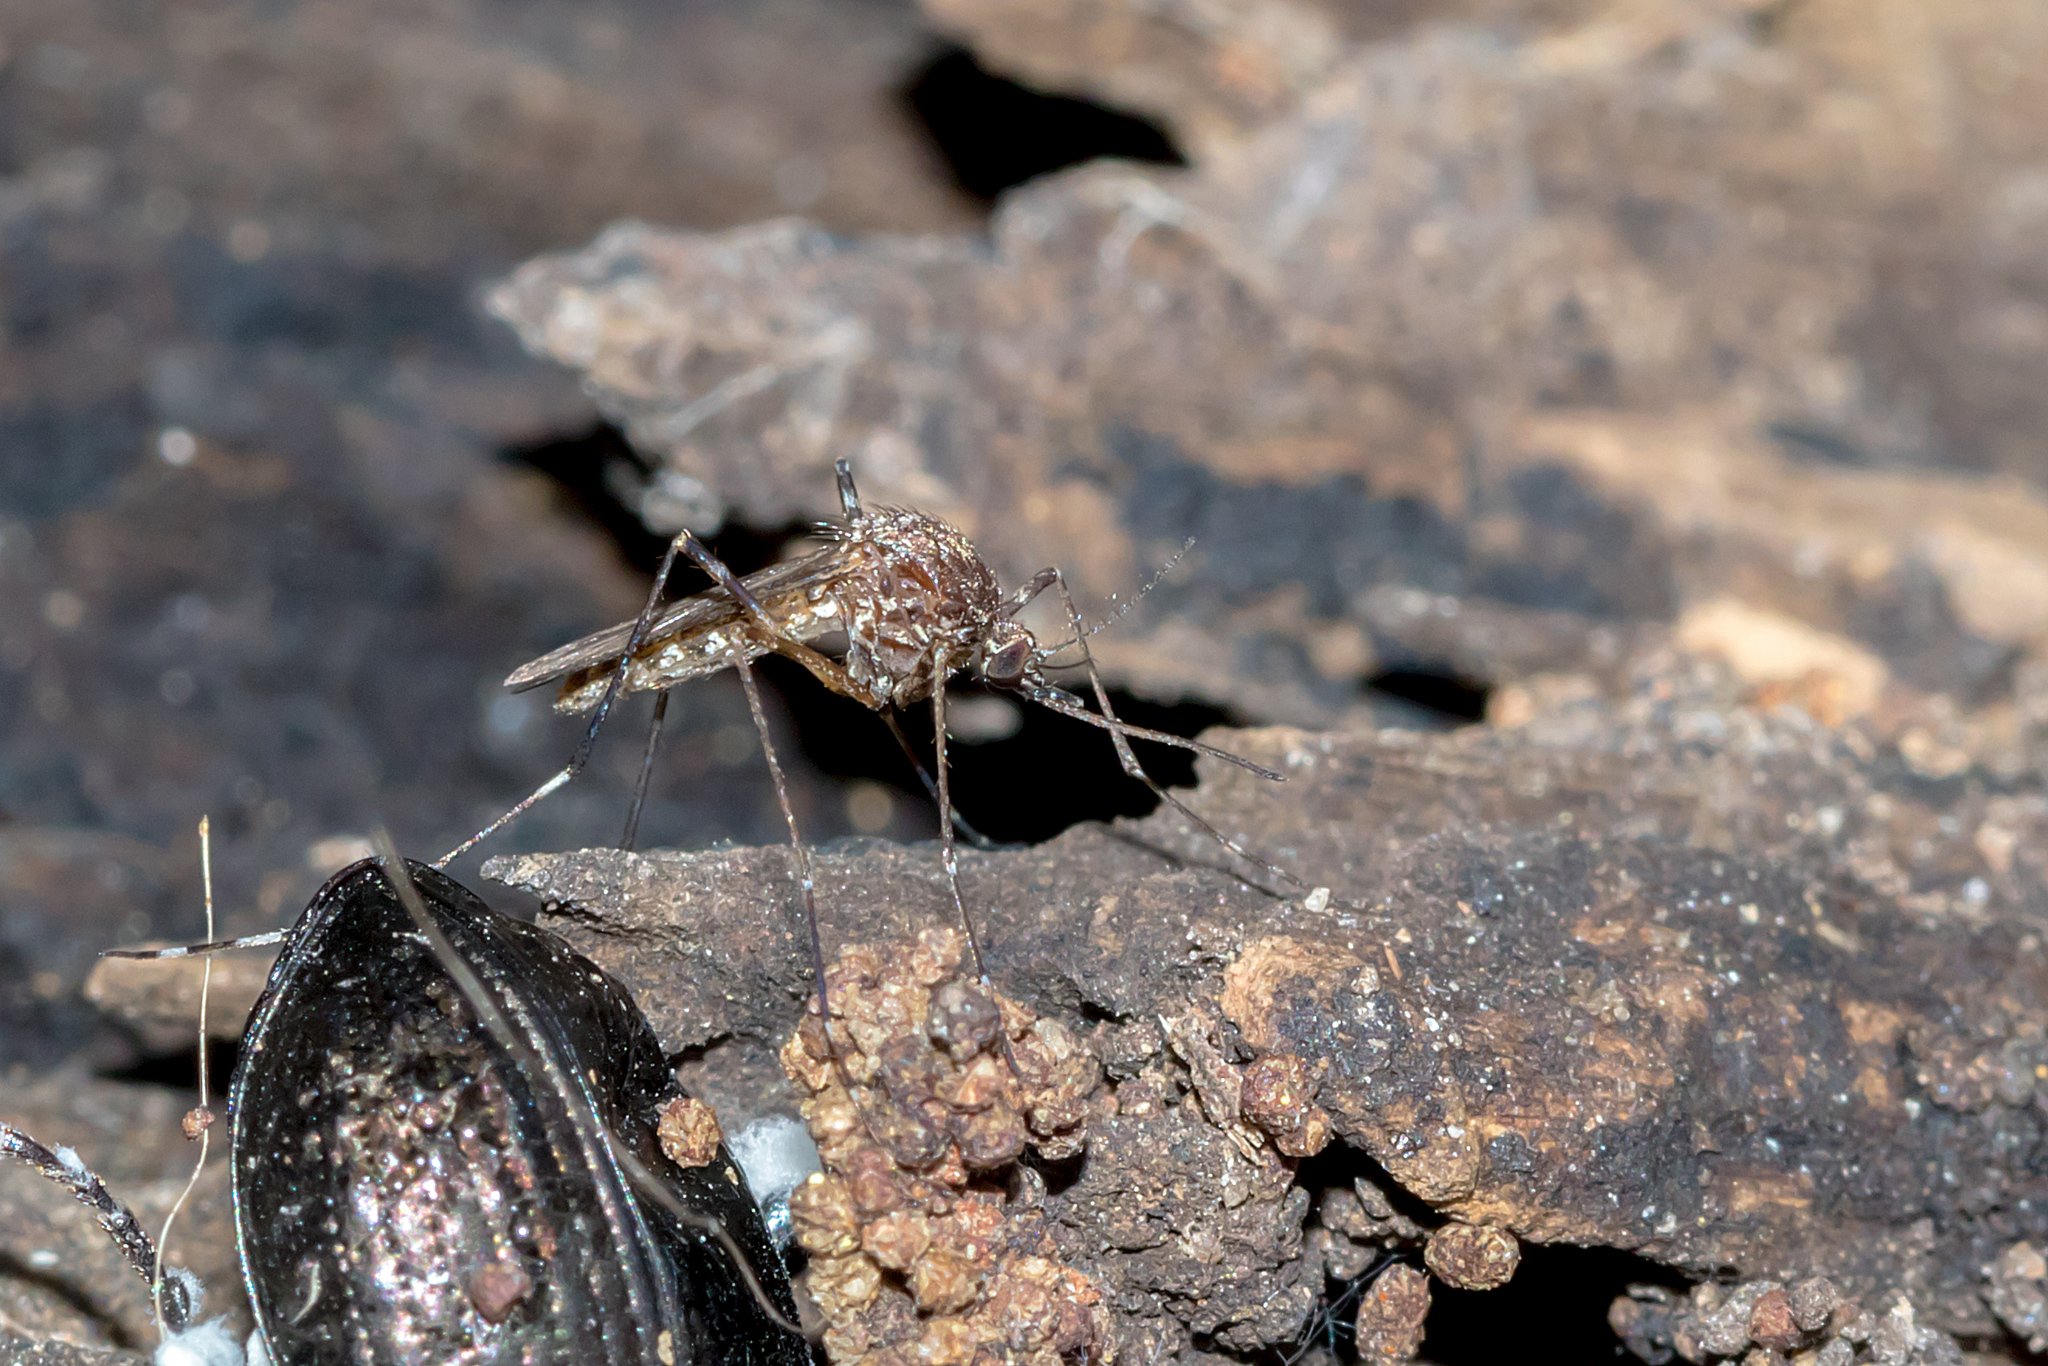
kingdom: Animalia
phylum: Arthropoda
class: Insecta
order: Diptera
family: Culicidae
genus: Aedes
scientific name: Aedes alboannulatus
